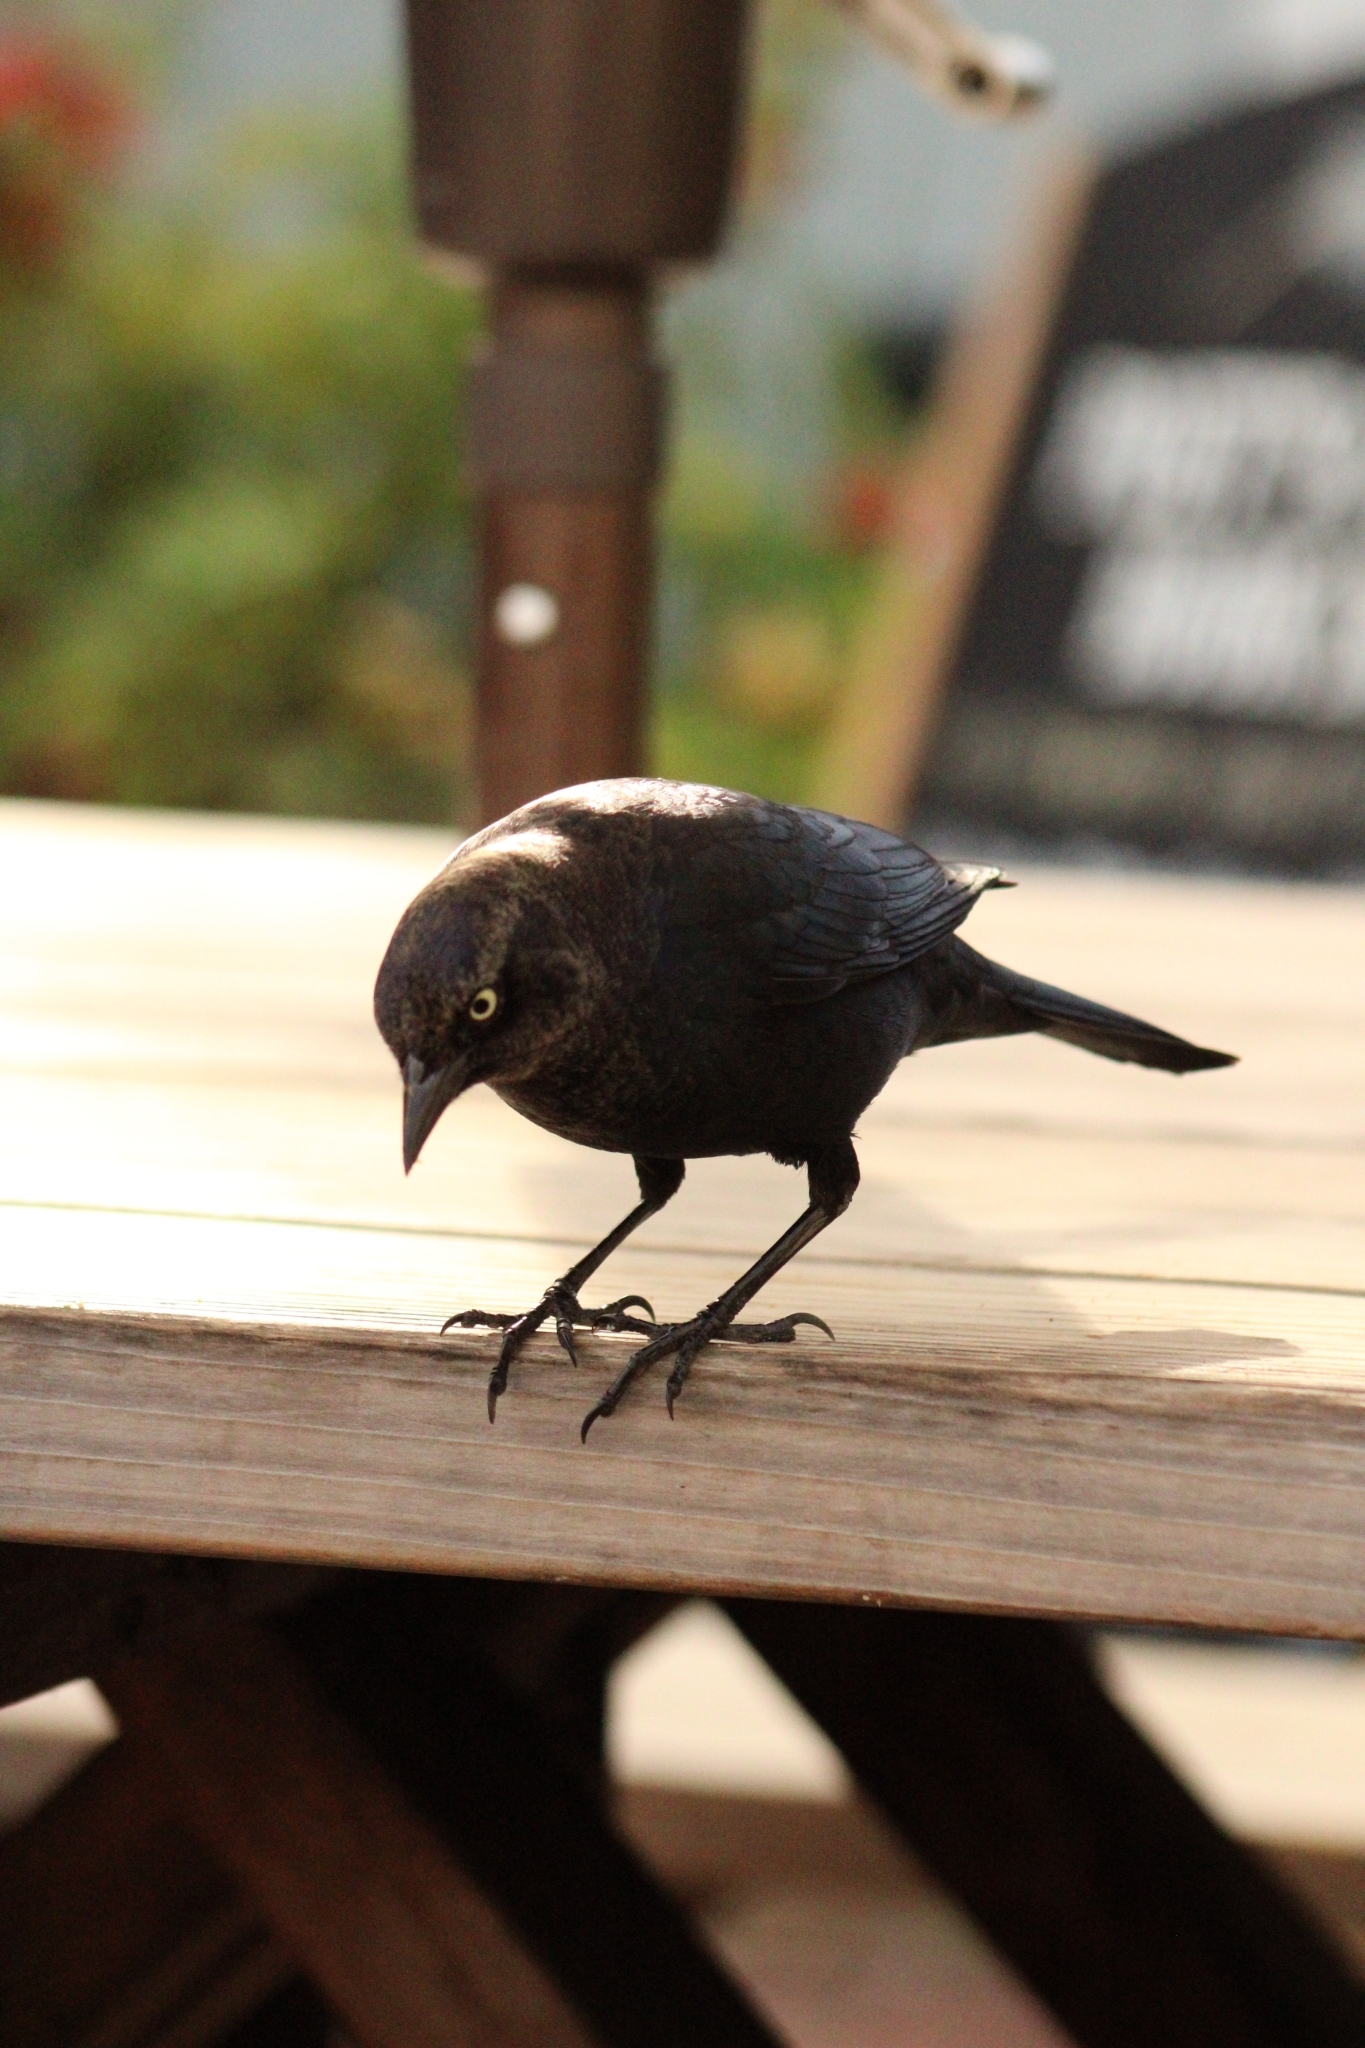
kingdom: Animalia
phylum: Chordata
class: Aves
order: Passeriformes
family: Icteridae
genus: Euphagus
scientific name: Euphagus cyanocephalus
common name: Brewer's blackbird
